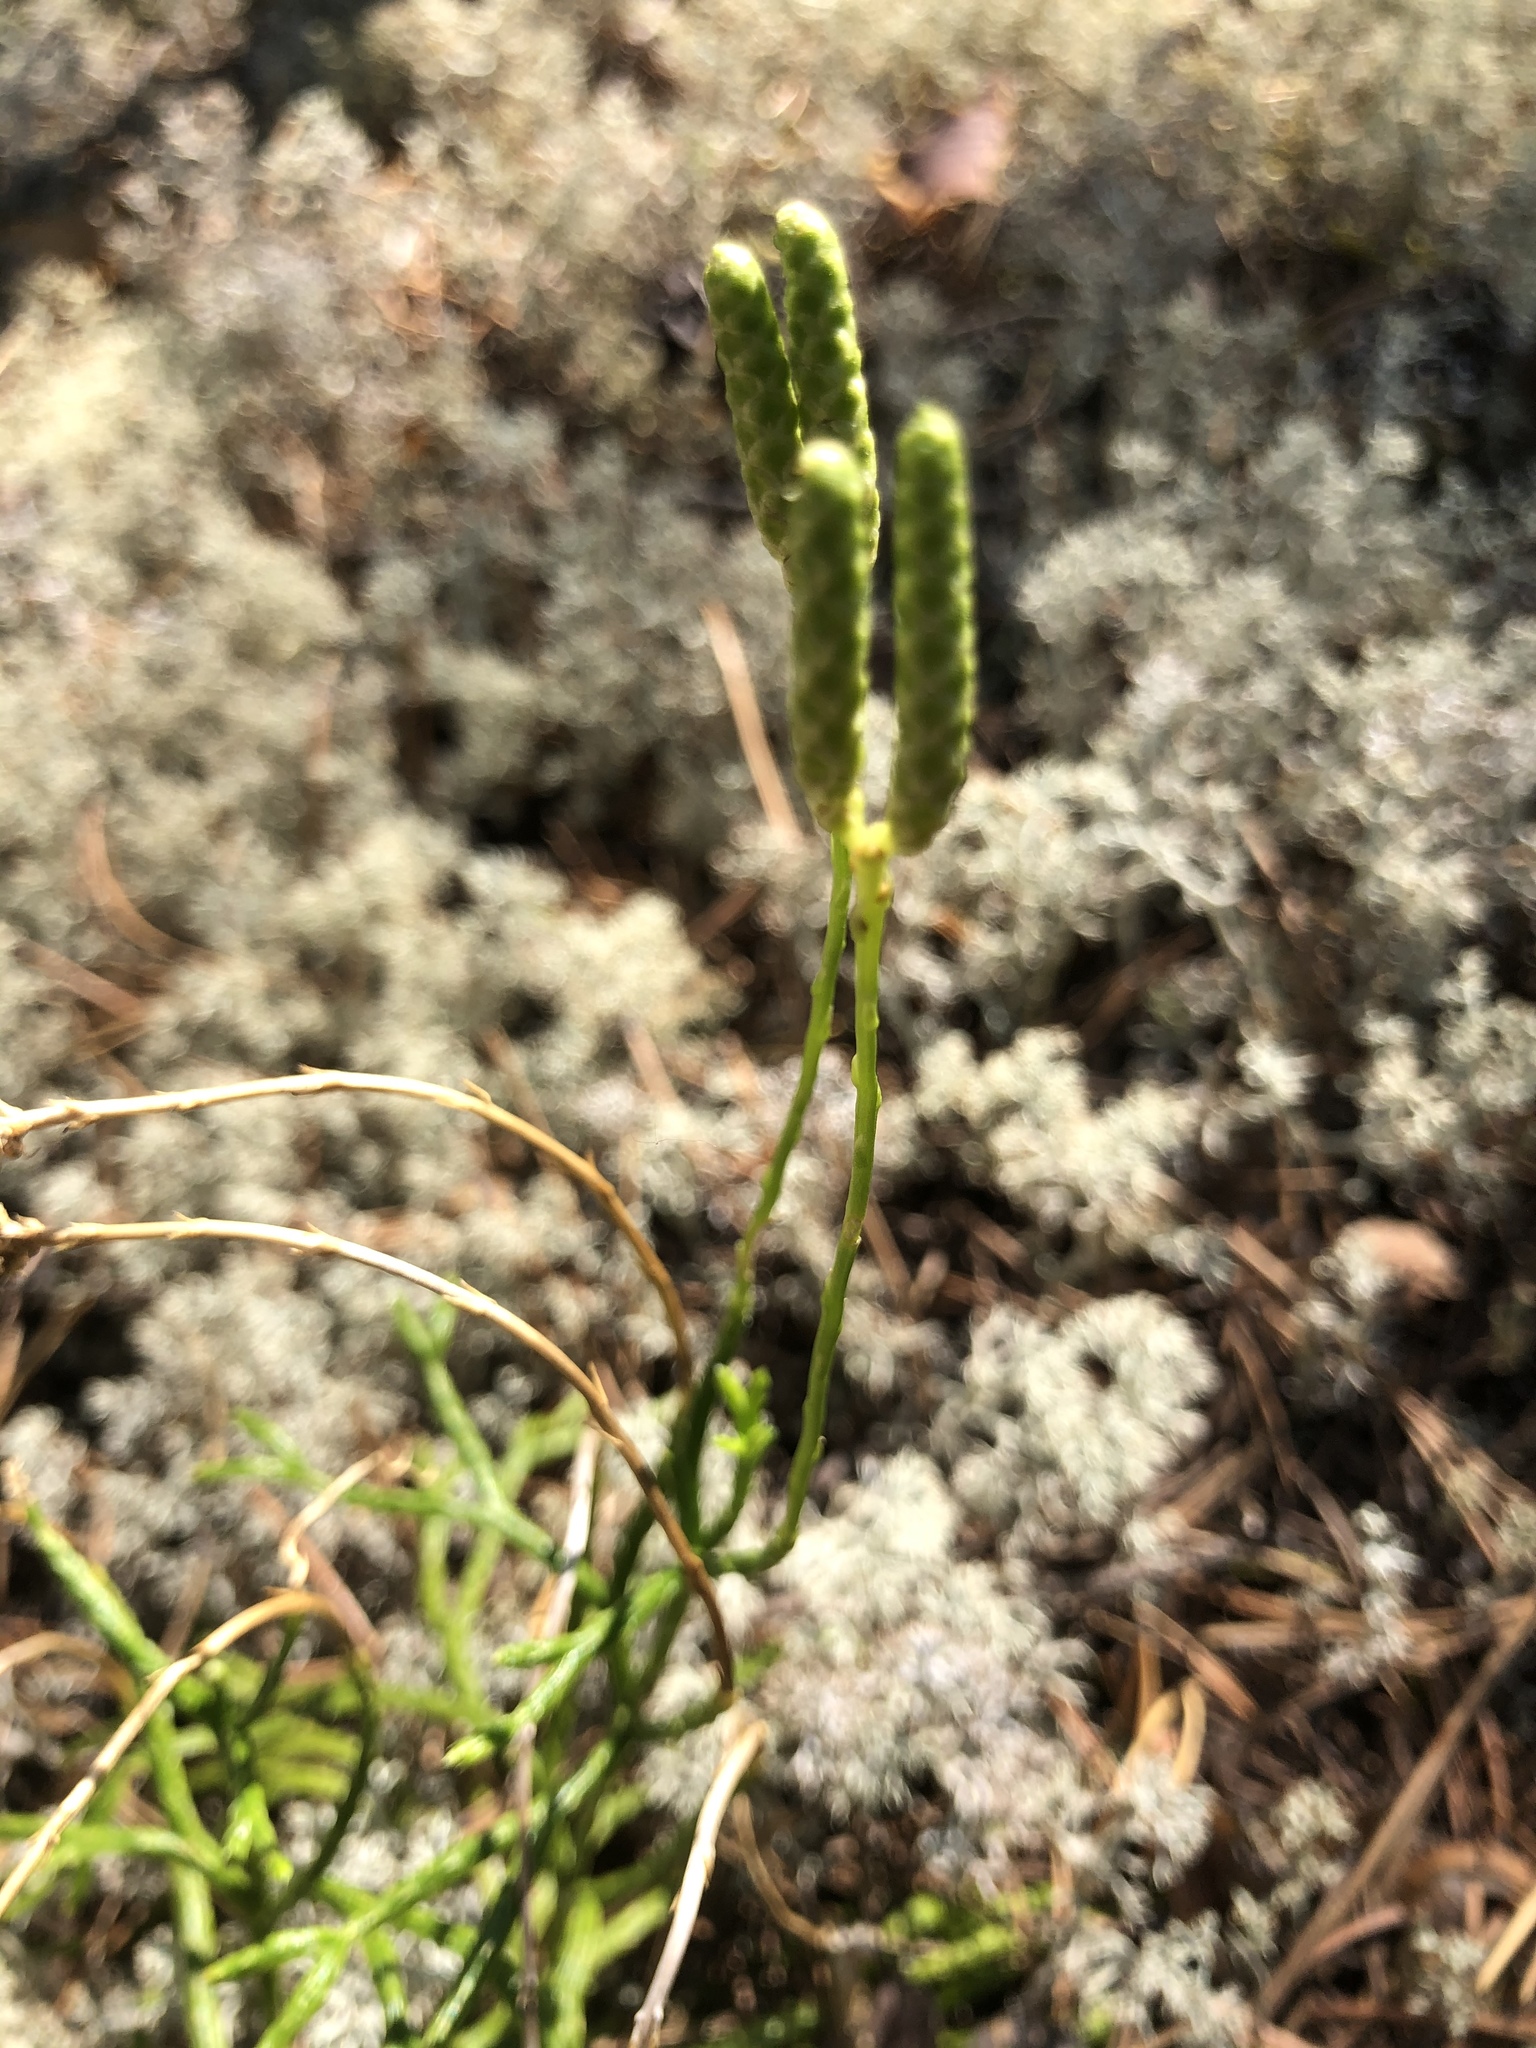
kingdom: Plantae
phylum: Tracheophyta
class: Lycopodiopsida
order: Lycopodiales
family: Lycopodiaceae
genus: Diphasiastrum
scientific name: Diphasiastrum complanatum
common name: Northern running-pine
